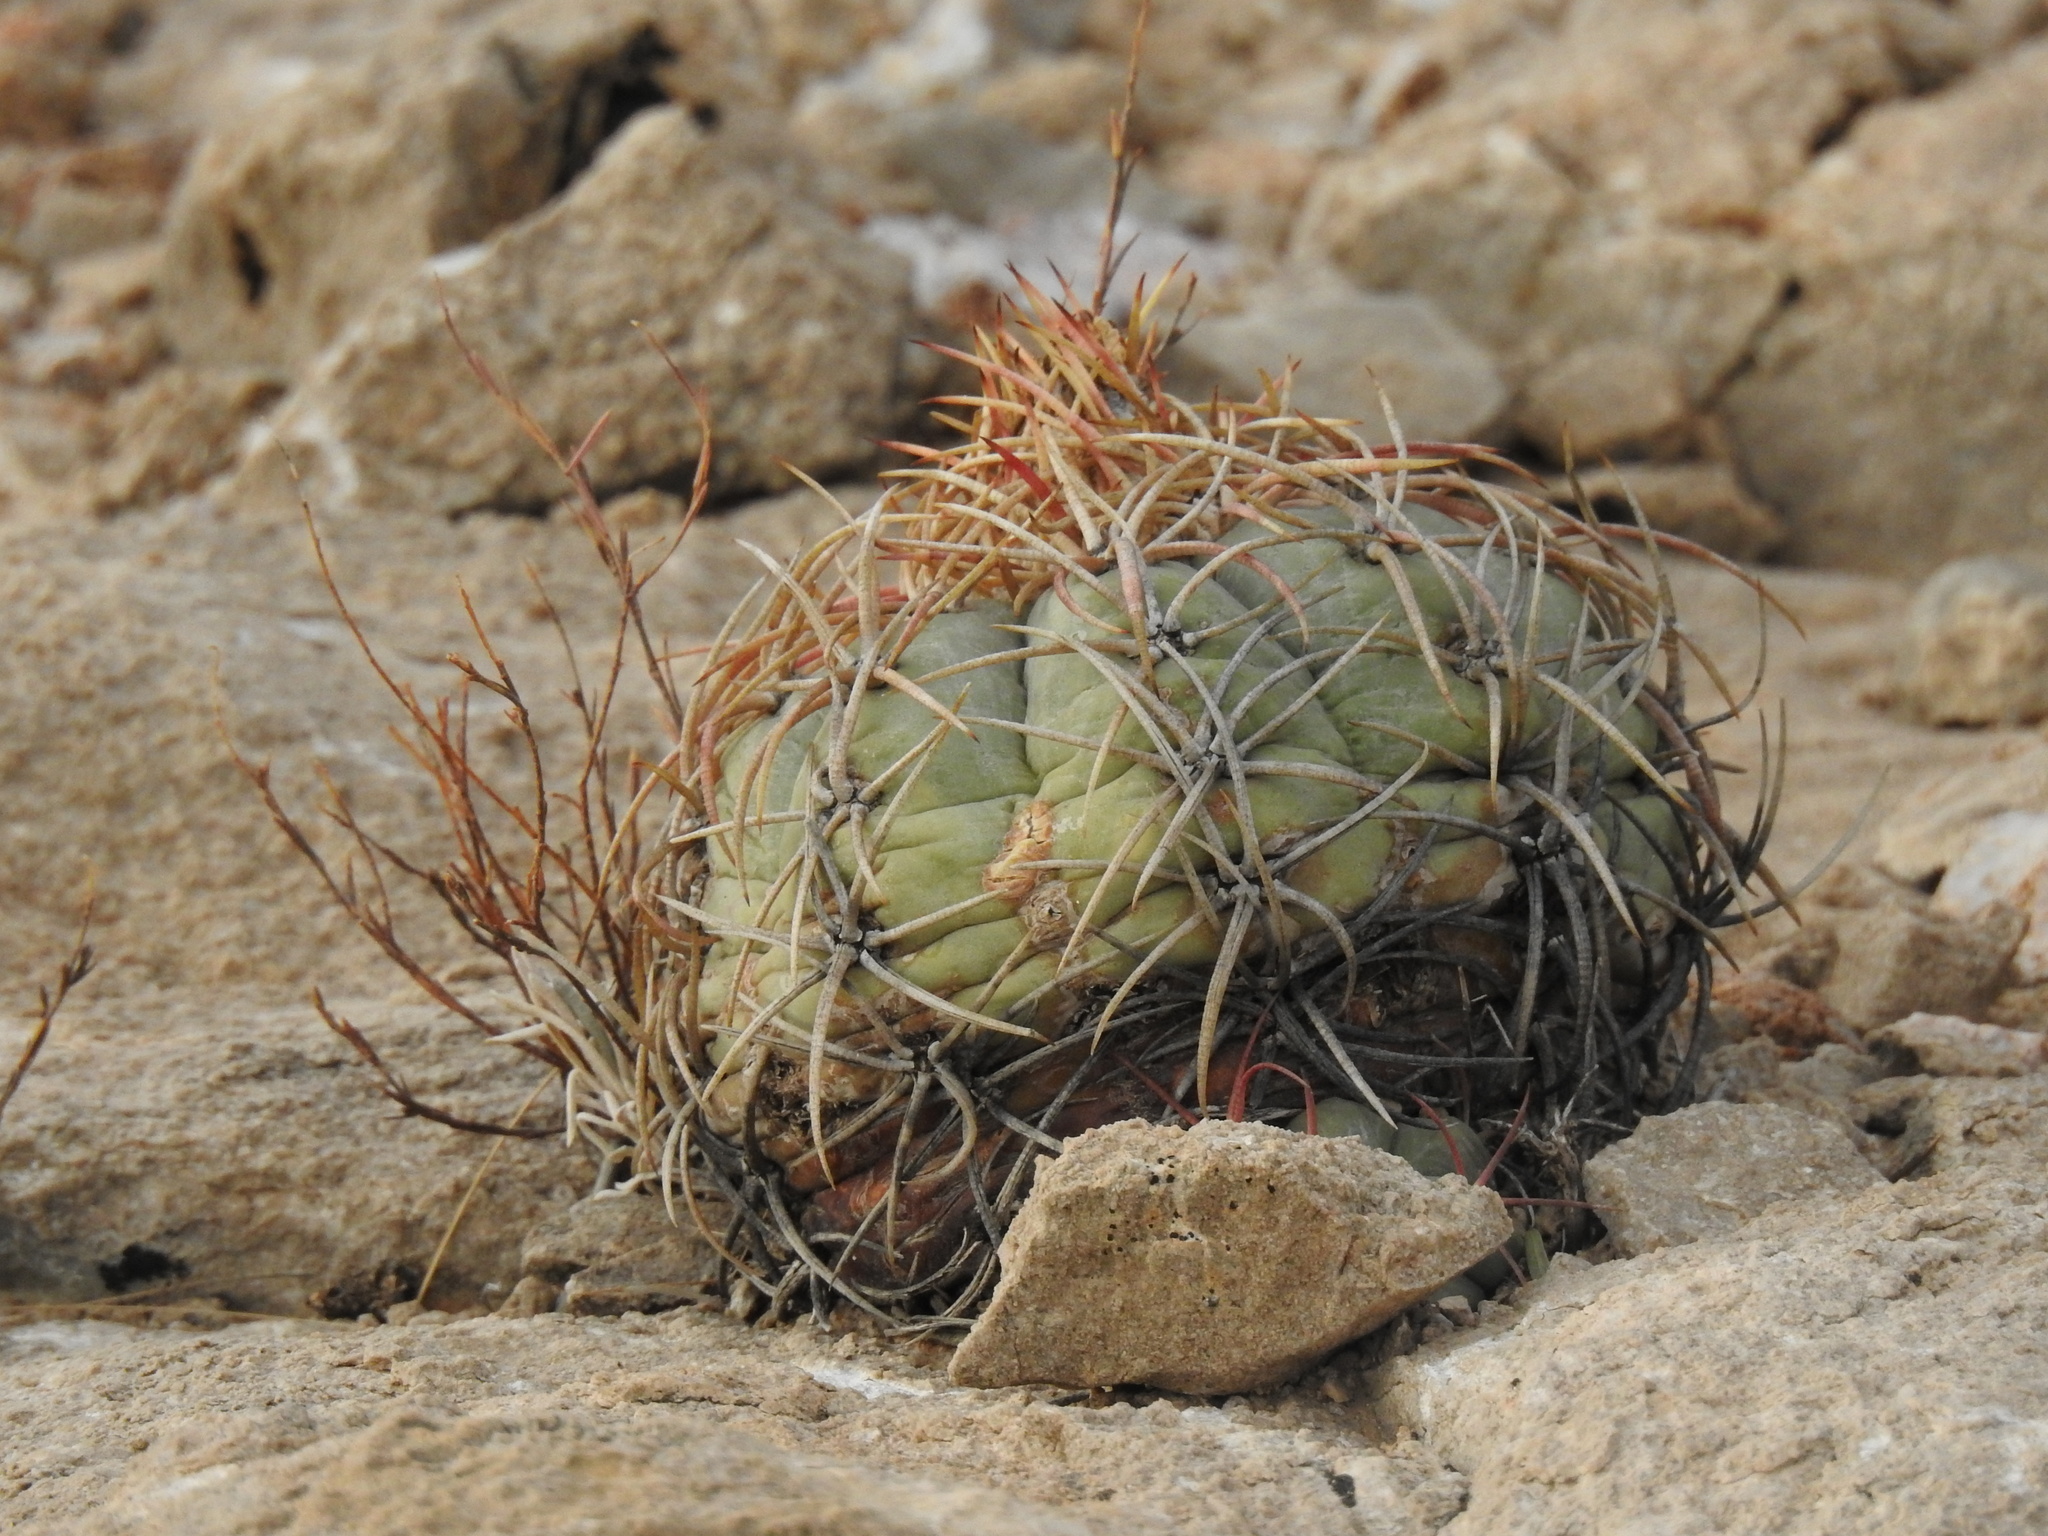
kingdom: Plantae
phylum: Tracheophyta
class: Magnoliopsida
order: Caryophyllales
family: Cactaceae
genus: Echinocactus
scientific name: Echinocactus horizonthalonius
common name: Devilshead
